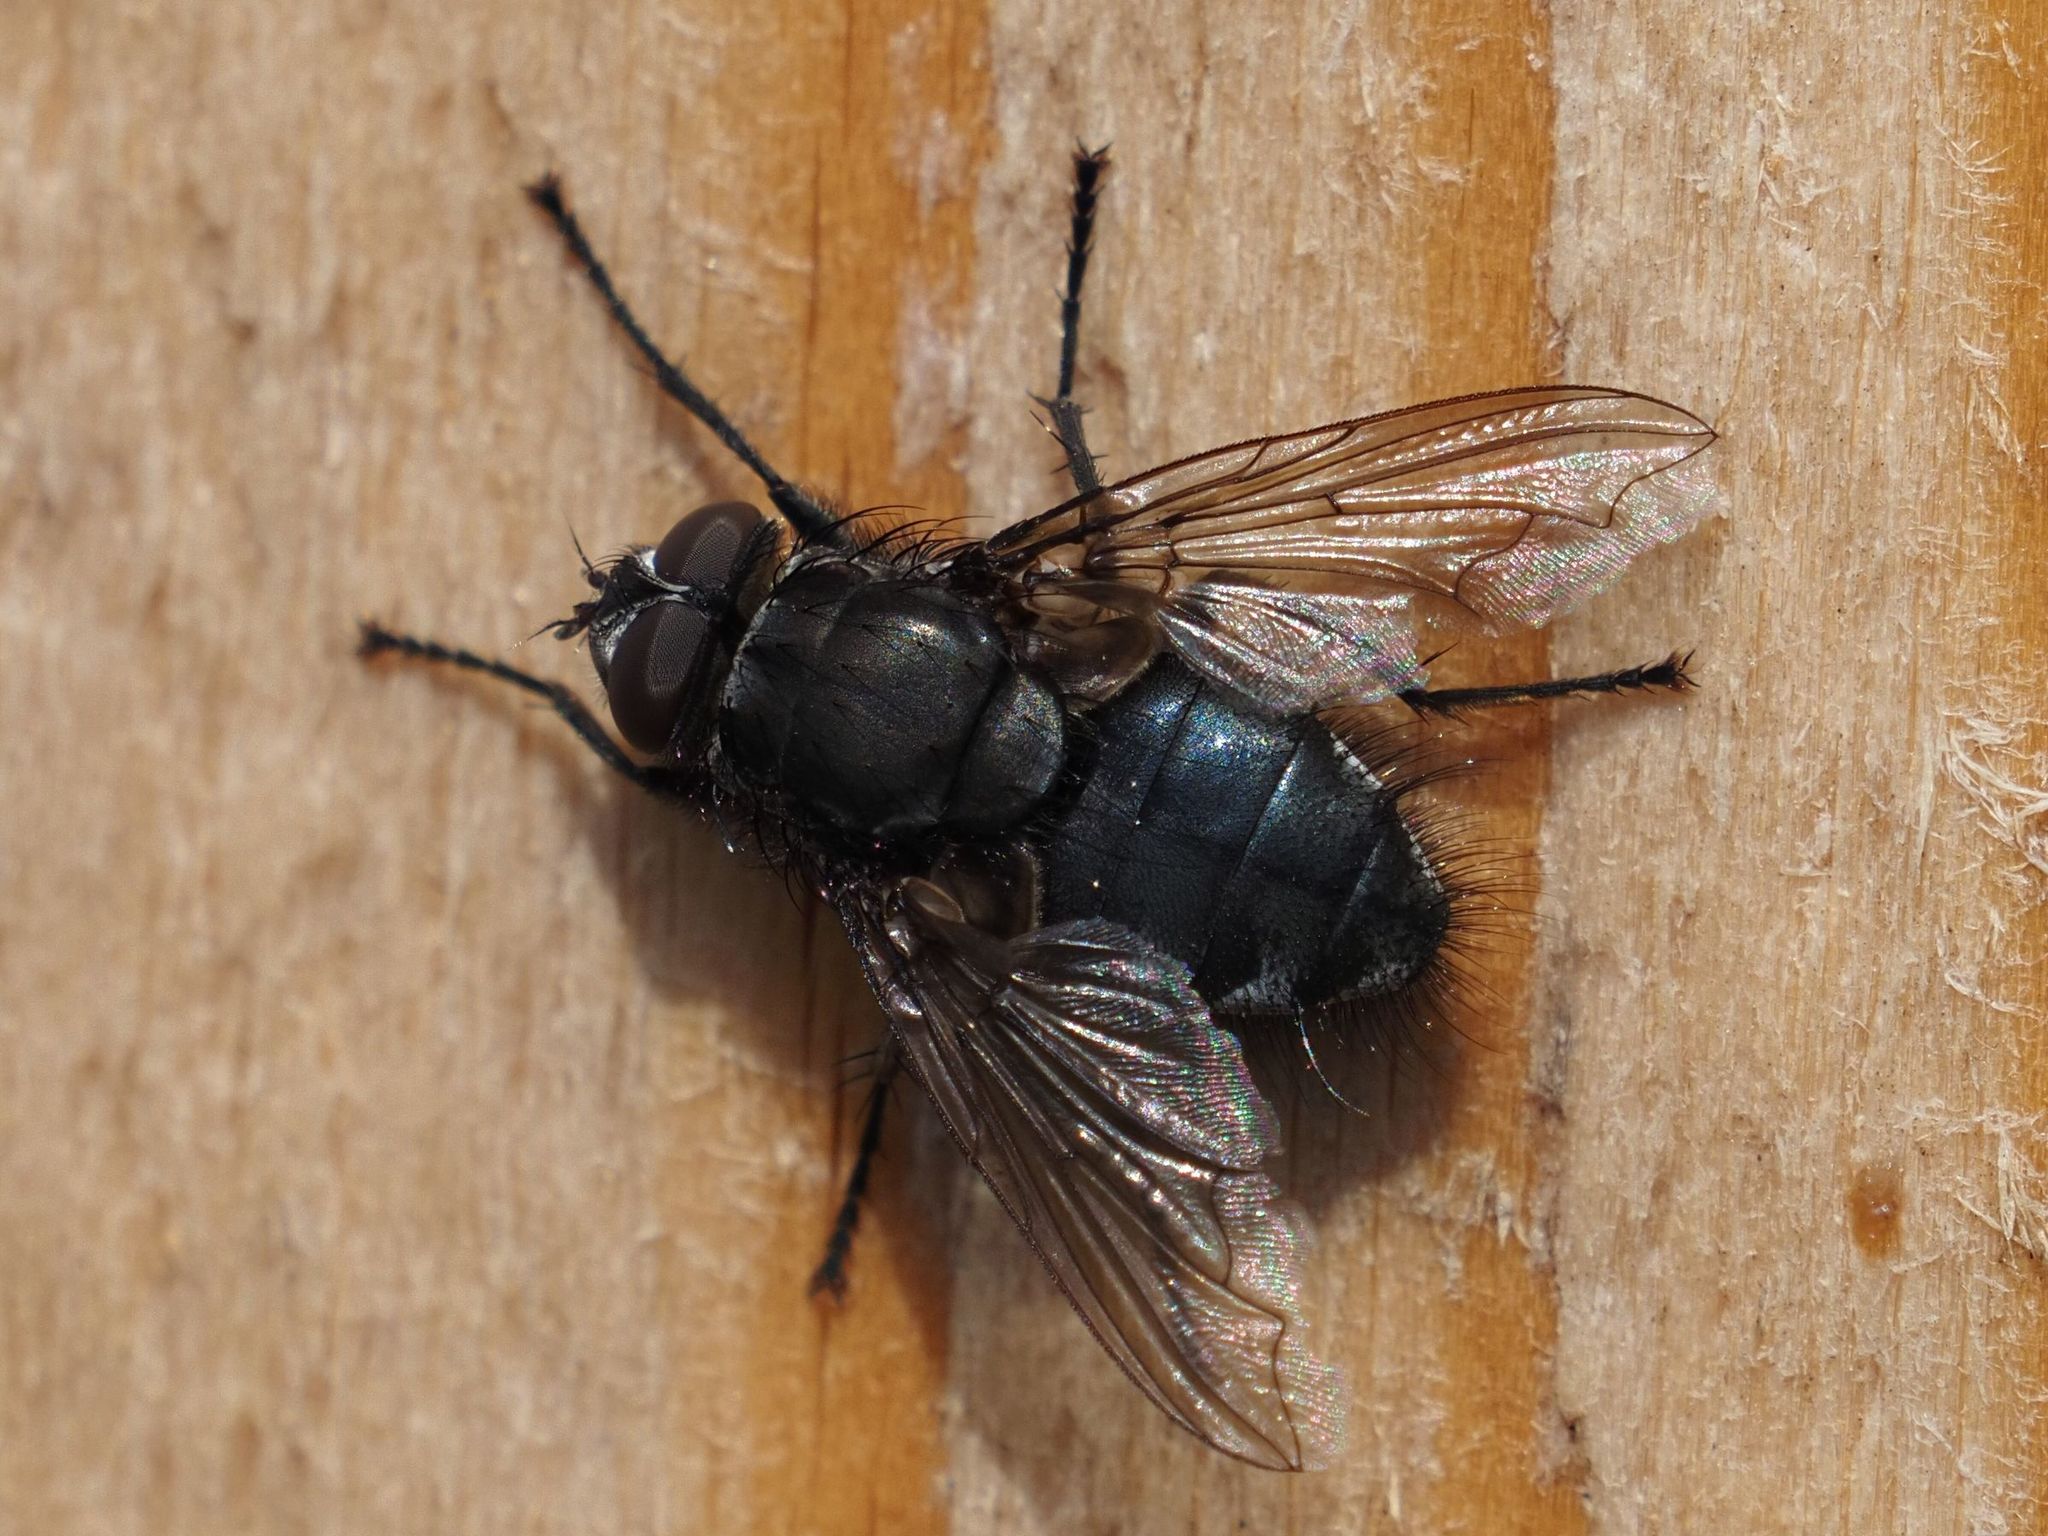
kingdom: Animalia
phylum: Arthropoda
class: Insecta
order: Diptera
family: Polleniidae
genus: Pollenia
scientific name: Pollenia vagabunda
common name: Vagabund cluster fly
